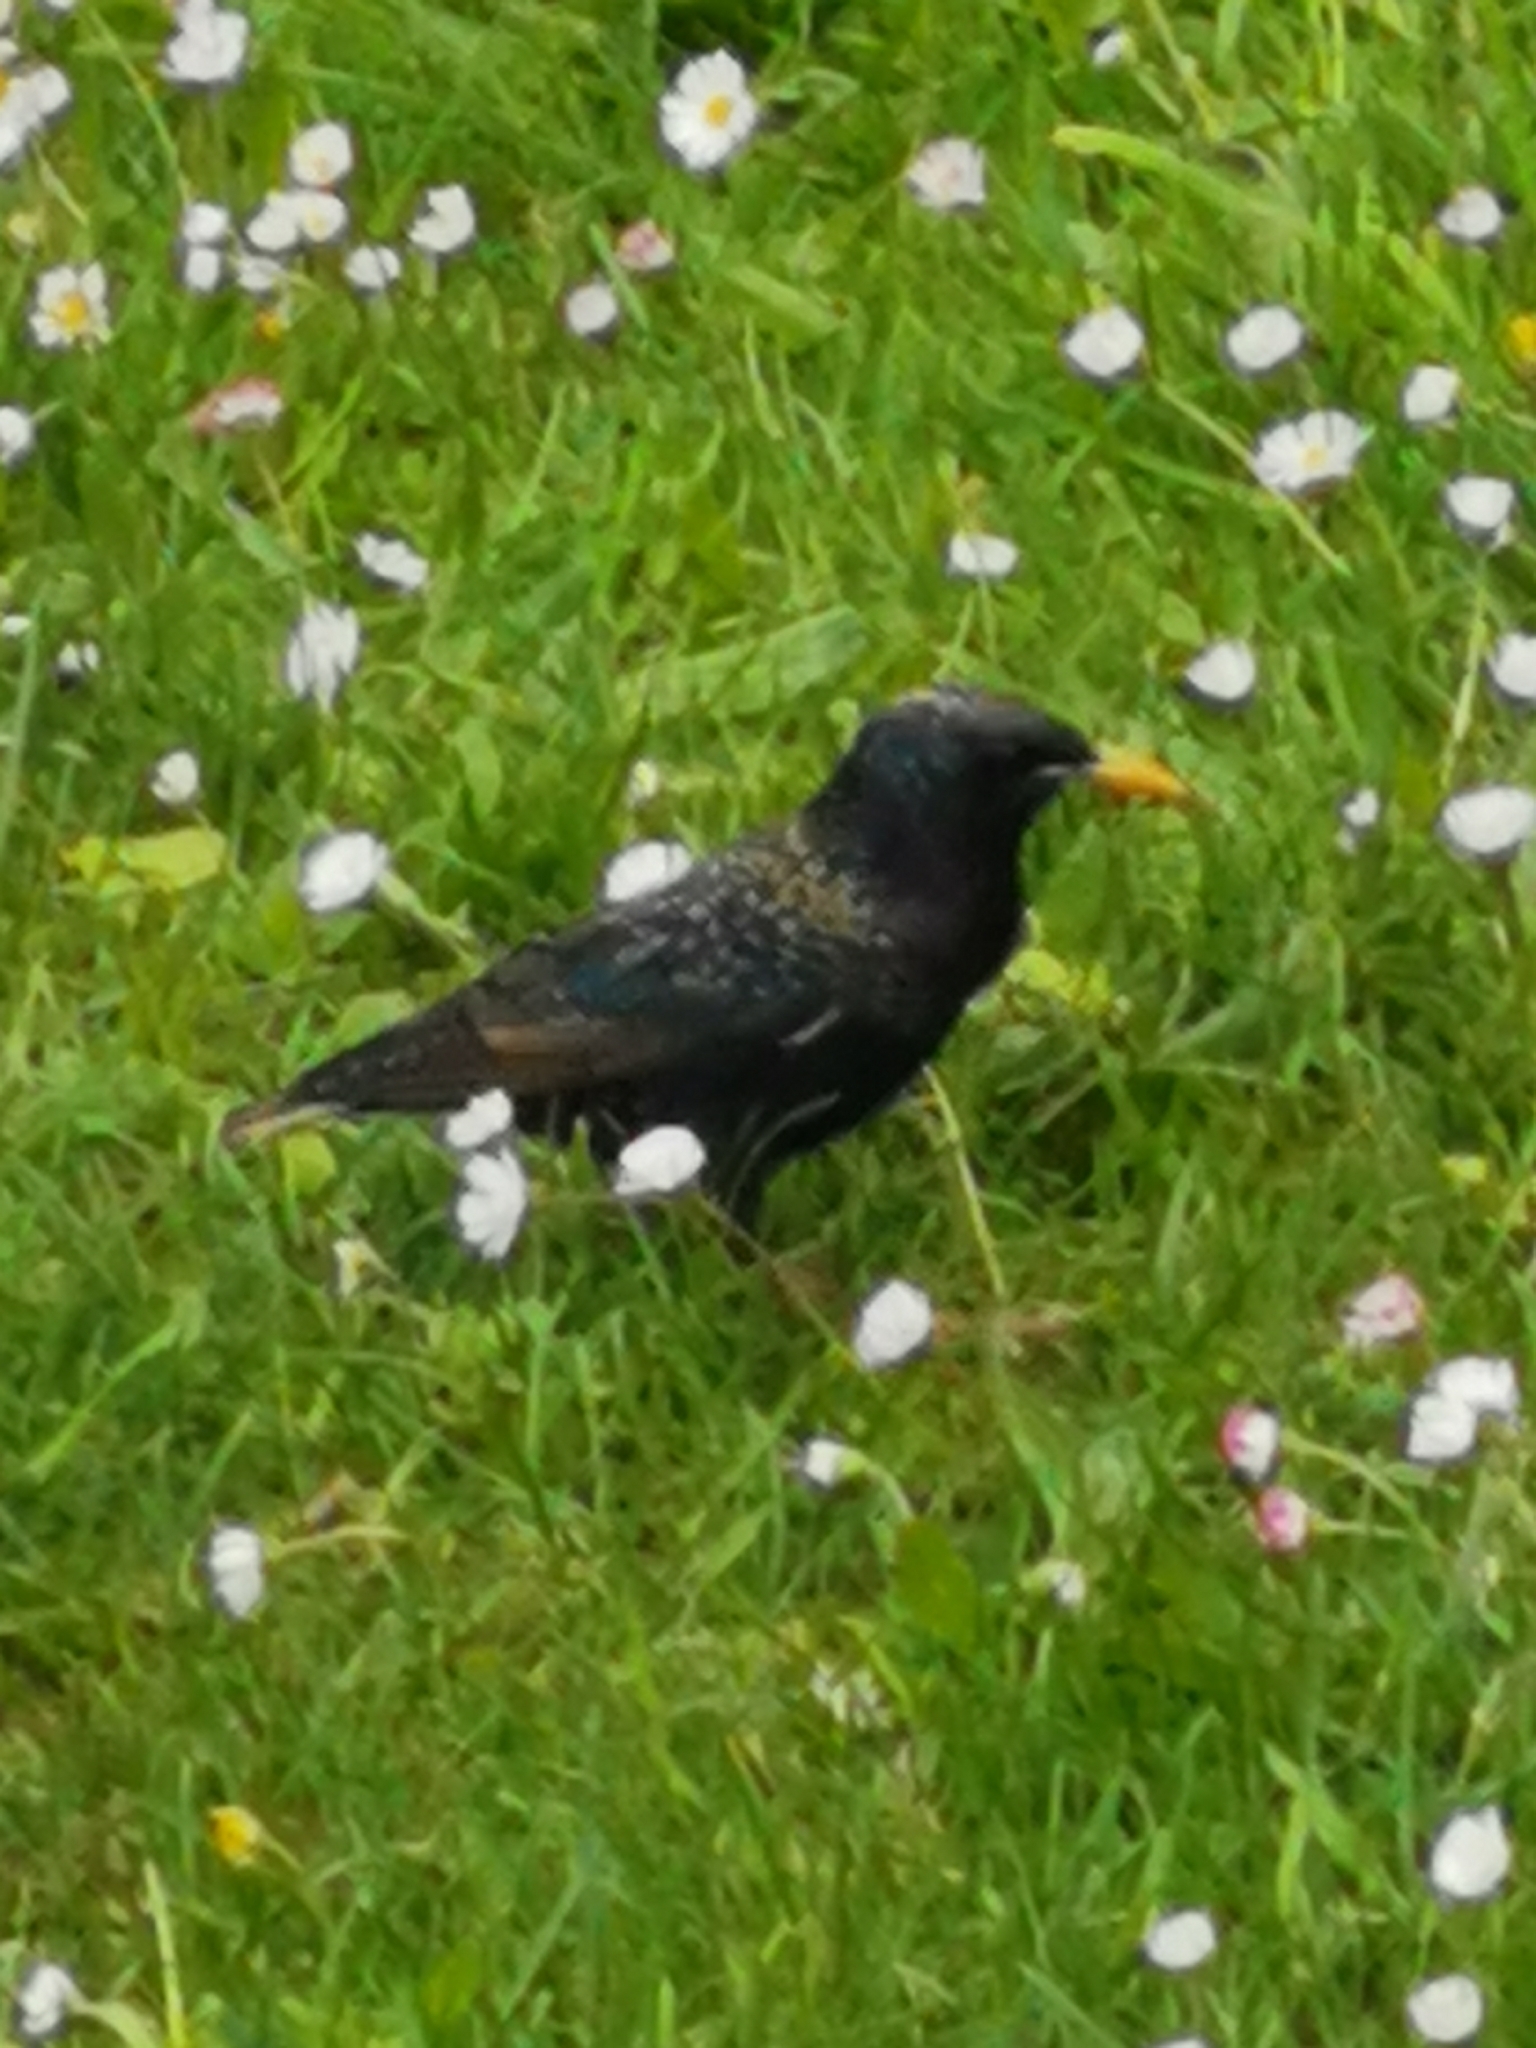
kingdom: Animalia
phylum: Chordata
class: Aves
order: Passeriformes
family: Sturnidae
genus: Sturnus
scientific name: Sturnus vulgaris
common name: Common starling
